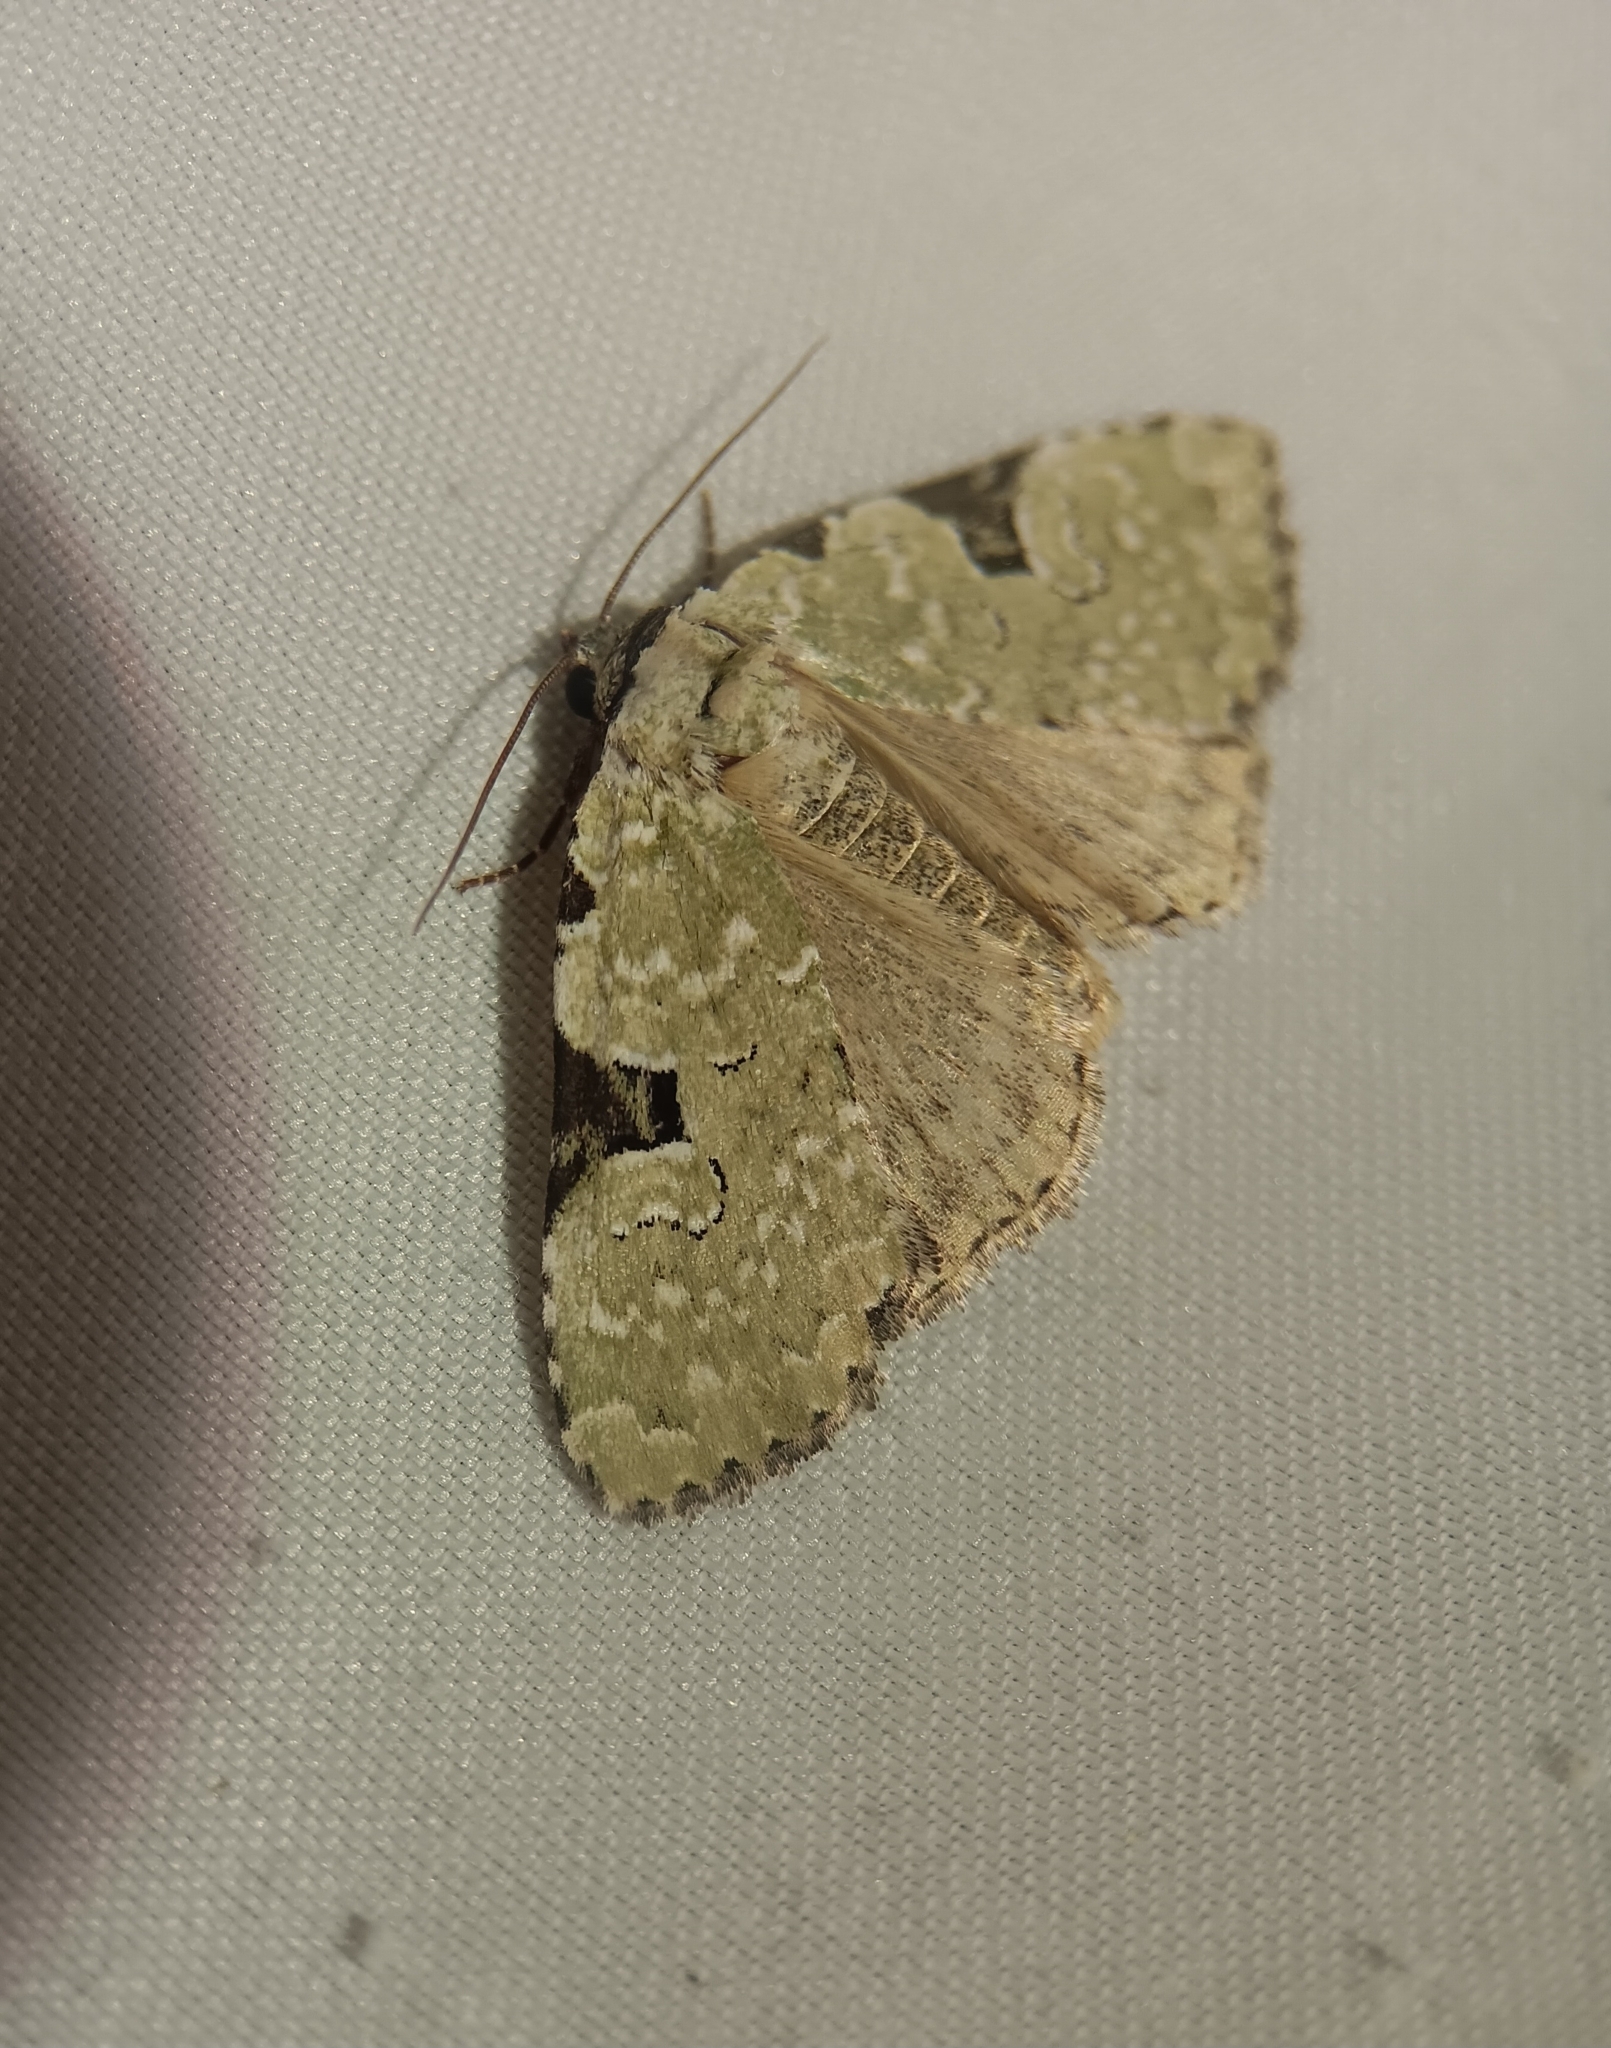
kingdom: Animalia
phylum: Arthropoda
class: Insecta
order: Lepidoptera
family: Noctuidae
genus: Leuconycta
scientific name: Leuconycta diphteroides
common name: Green leuconycta moth
